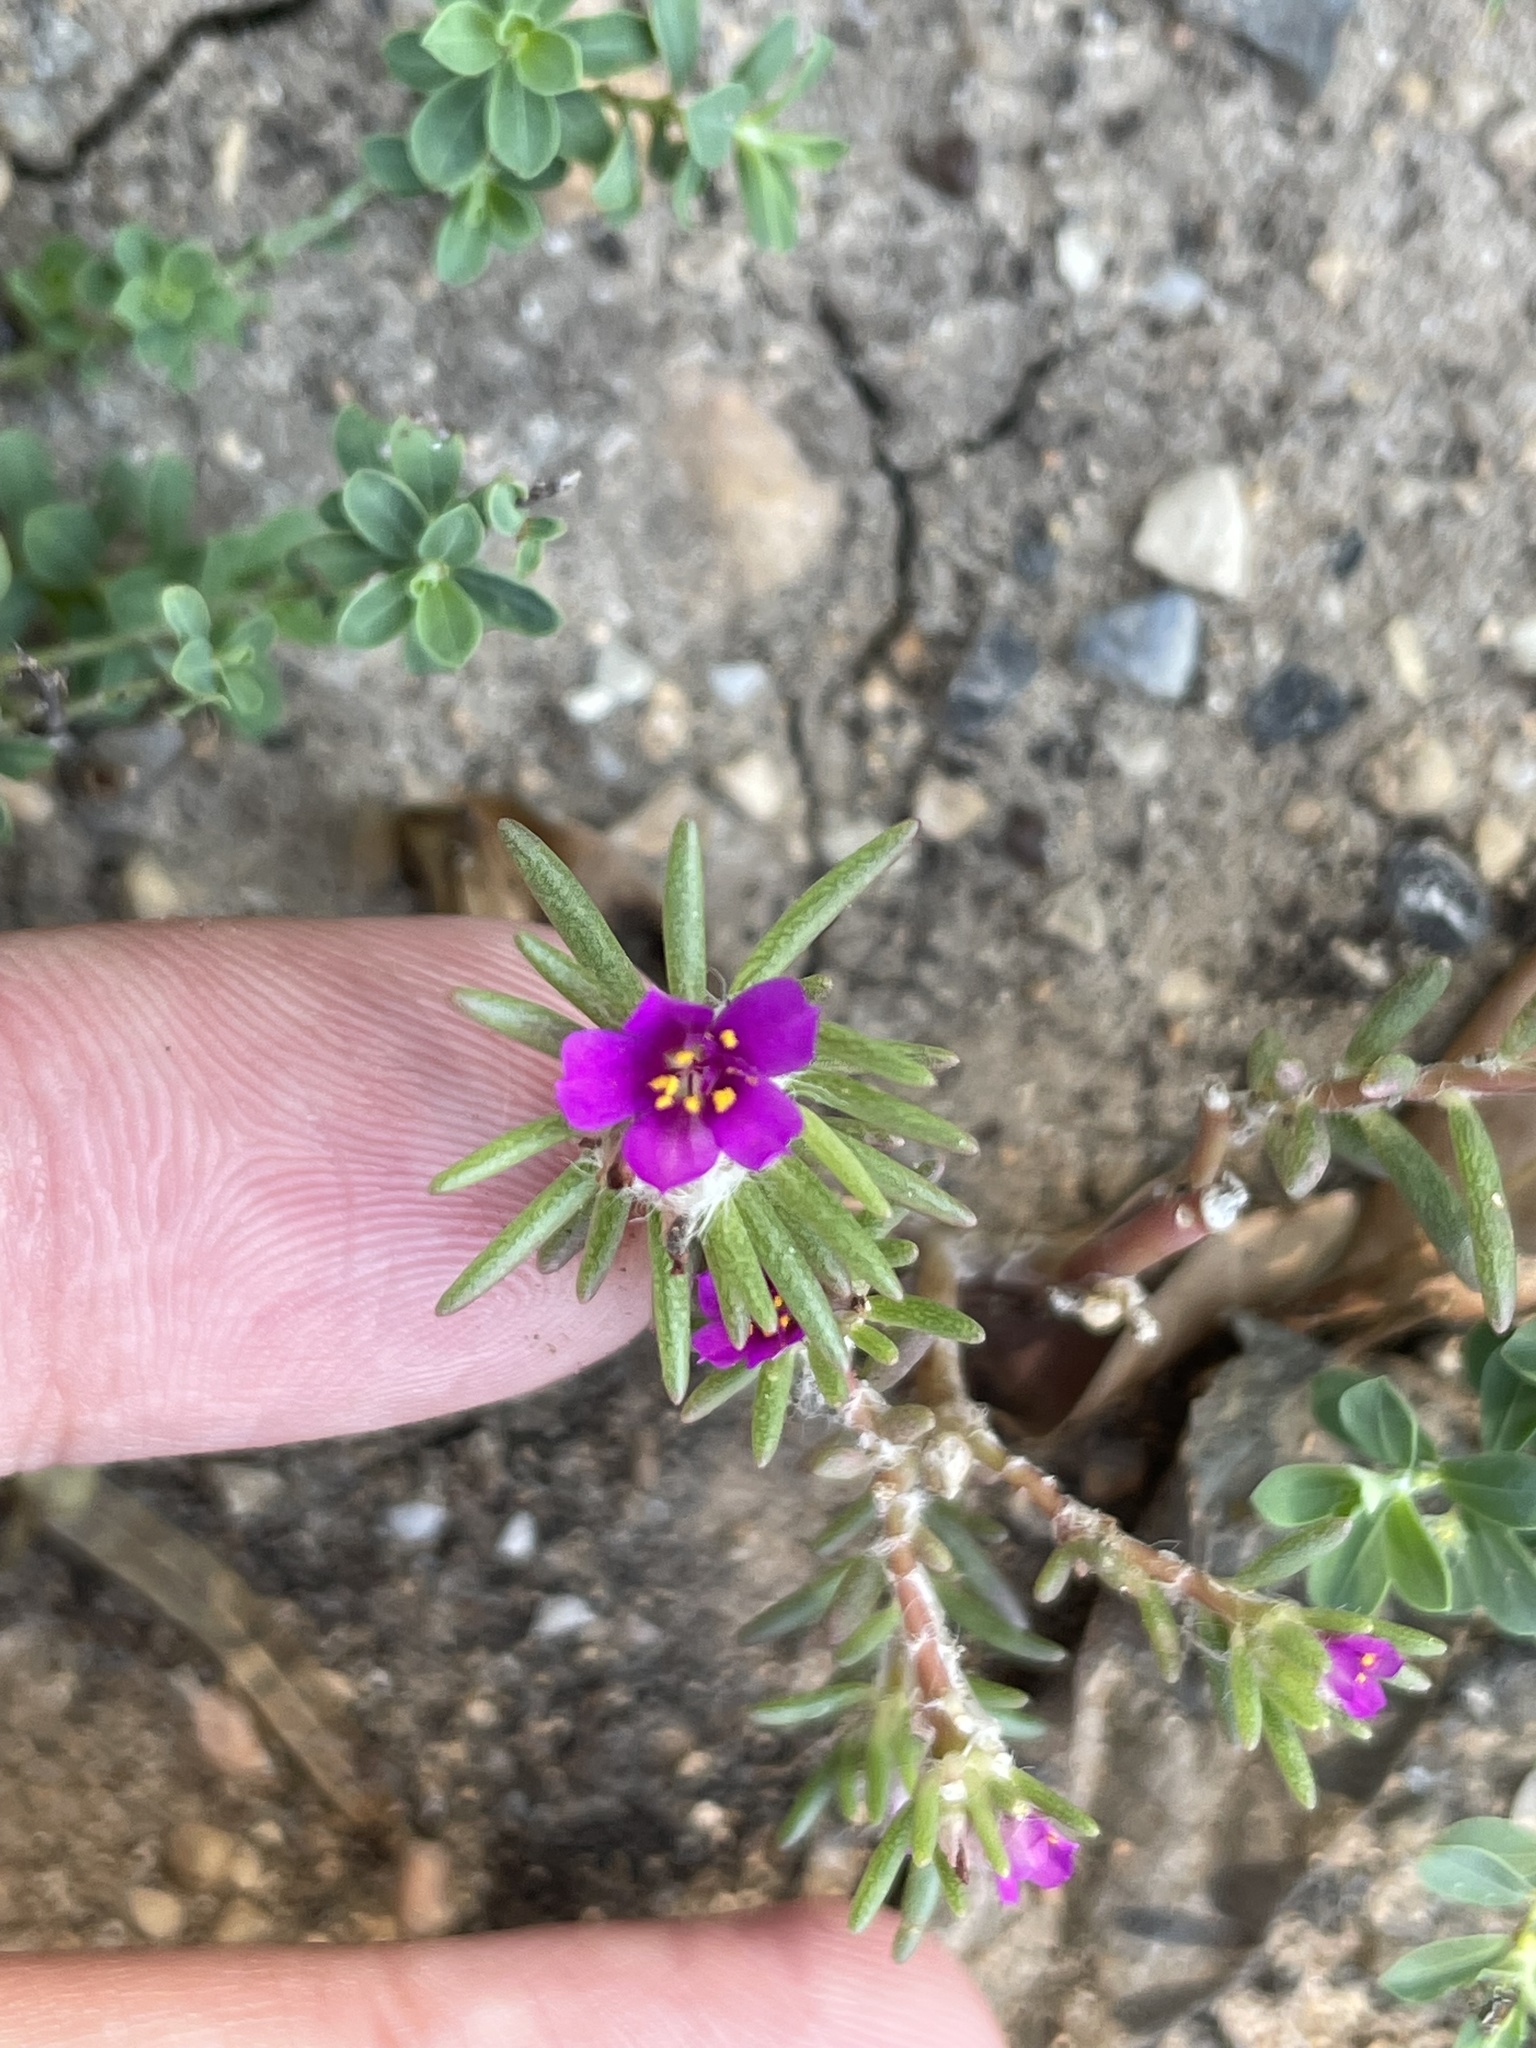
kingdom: Plantae
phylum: Tracheophyta
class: Magnoliopsida
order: Caryophyllales
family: Portulacaceae
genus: Portulaca
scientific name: Portulaca pilosa
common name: Kiss me quick
